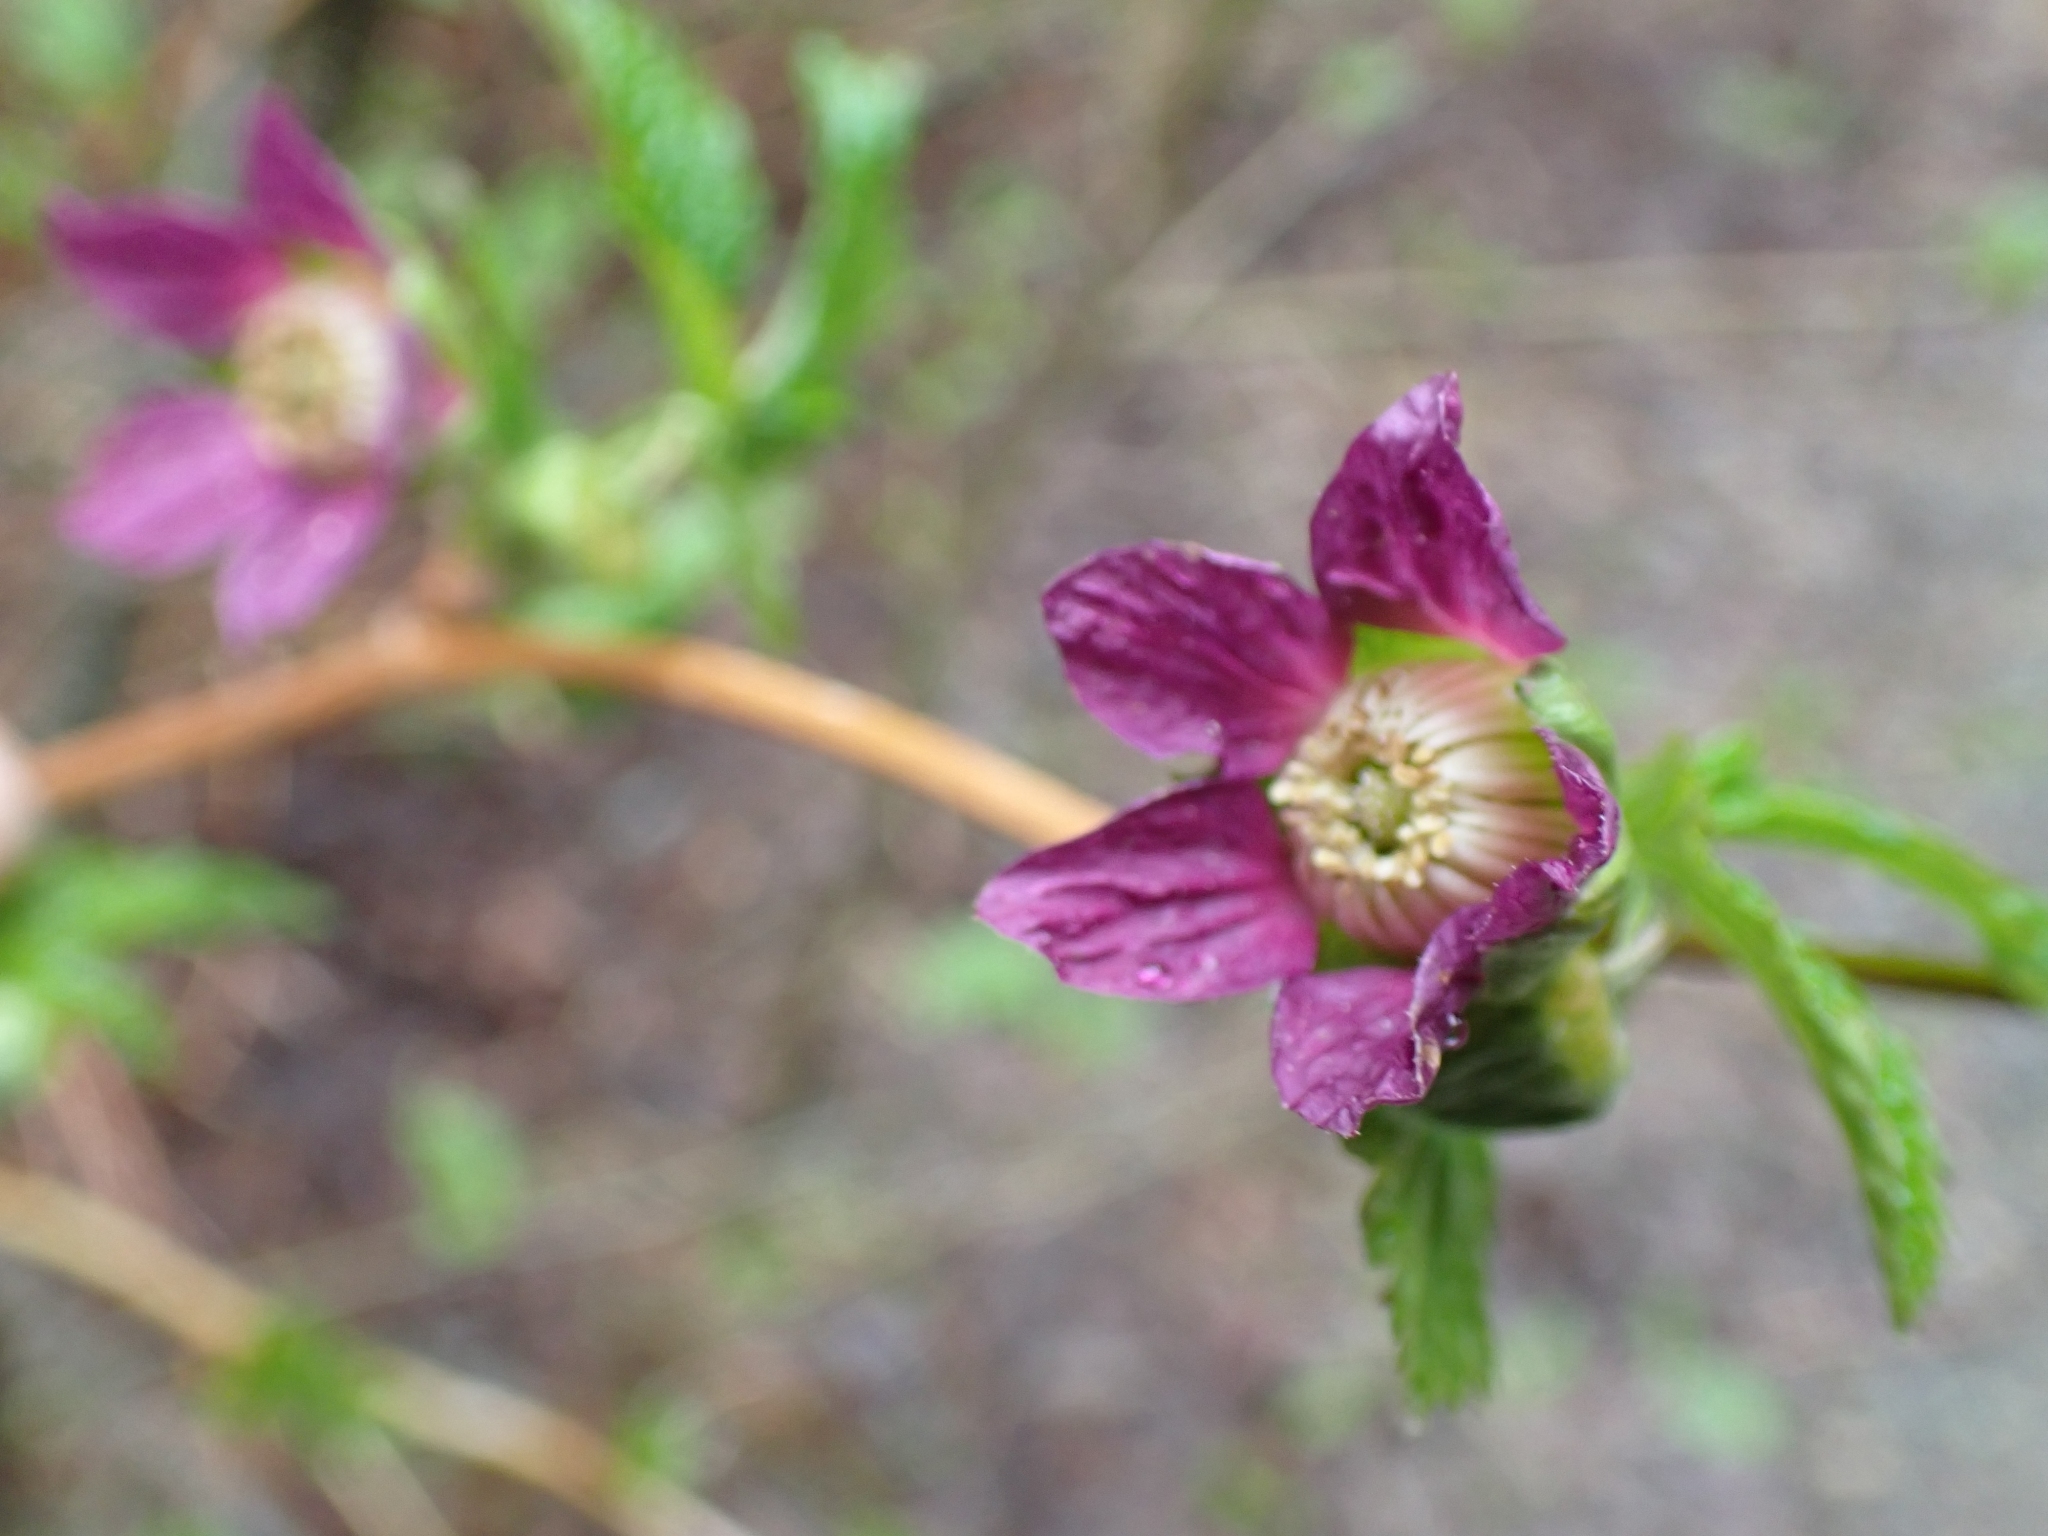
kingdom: Plantae
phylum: Tracheophyta
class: Magnoliopsida
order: Rosales
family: Rosaceae
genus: Rubus
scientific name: Rubus spectabilis
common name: Salmonberry
